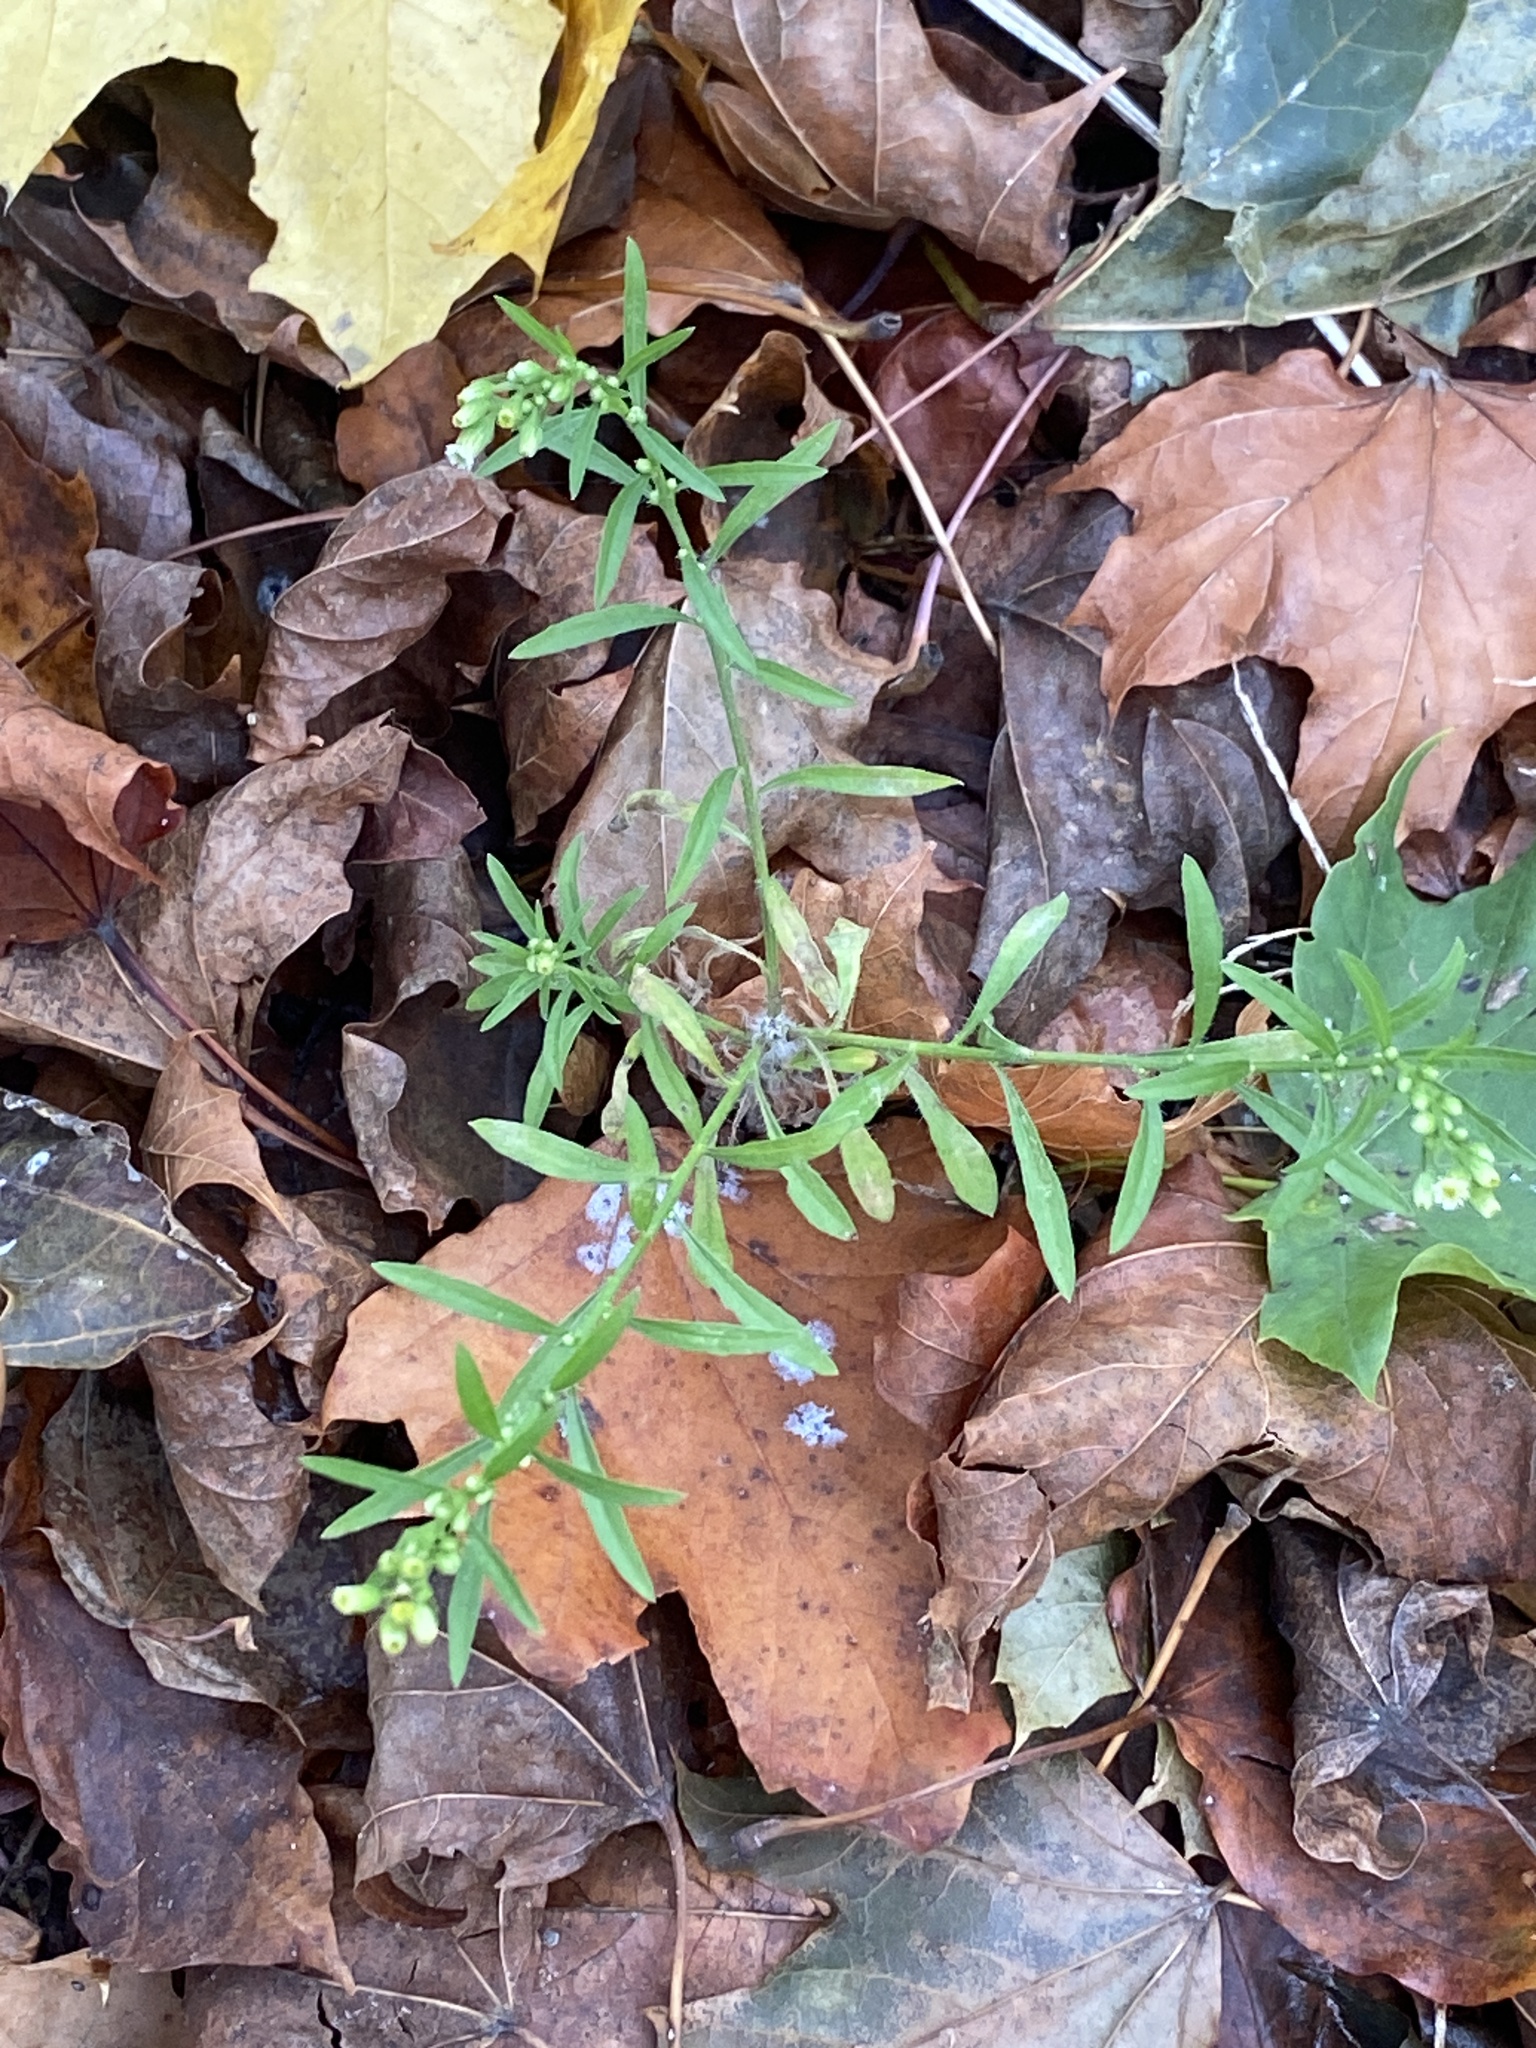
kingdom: Plantae
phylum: Tracheophyta
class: Magnoliopsida
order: Asterales
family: Asteraceae
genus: Erigeron
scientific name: Erigeron canadensis
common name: Canadian fleabane
